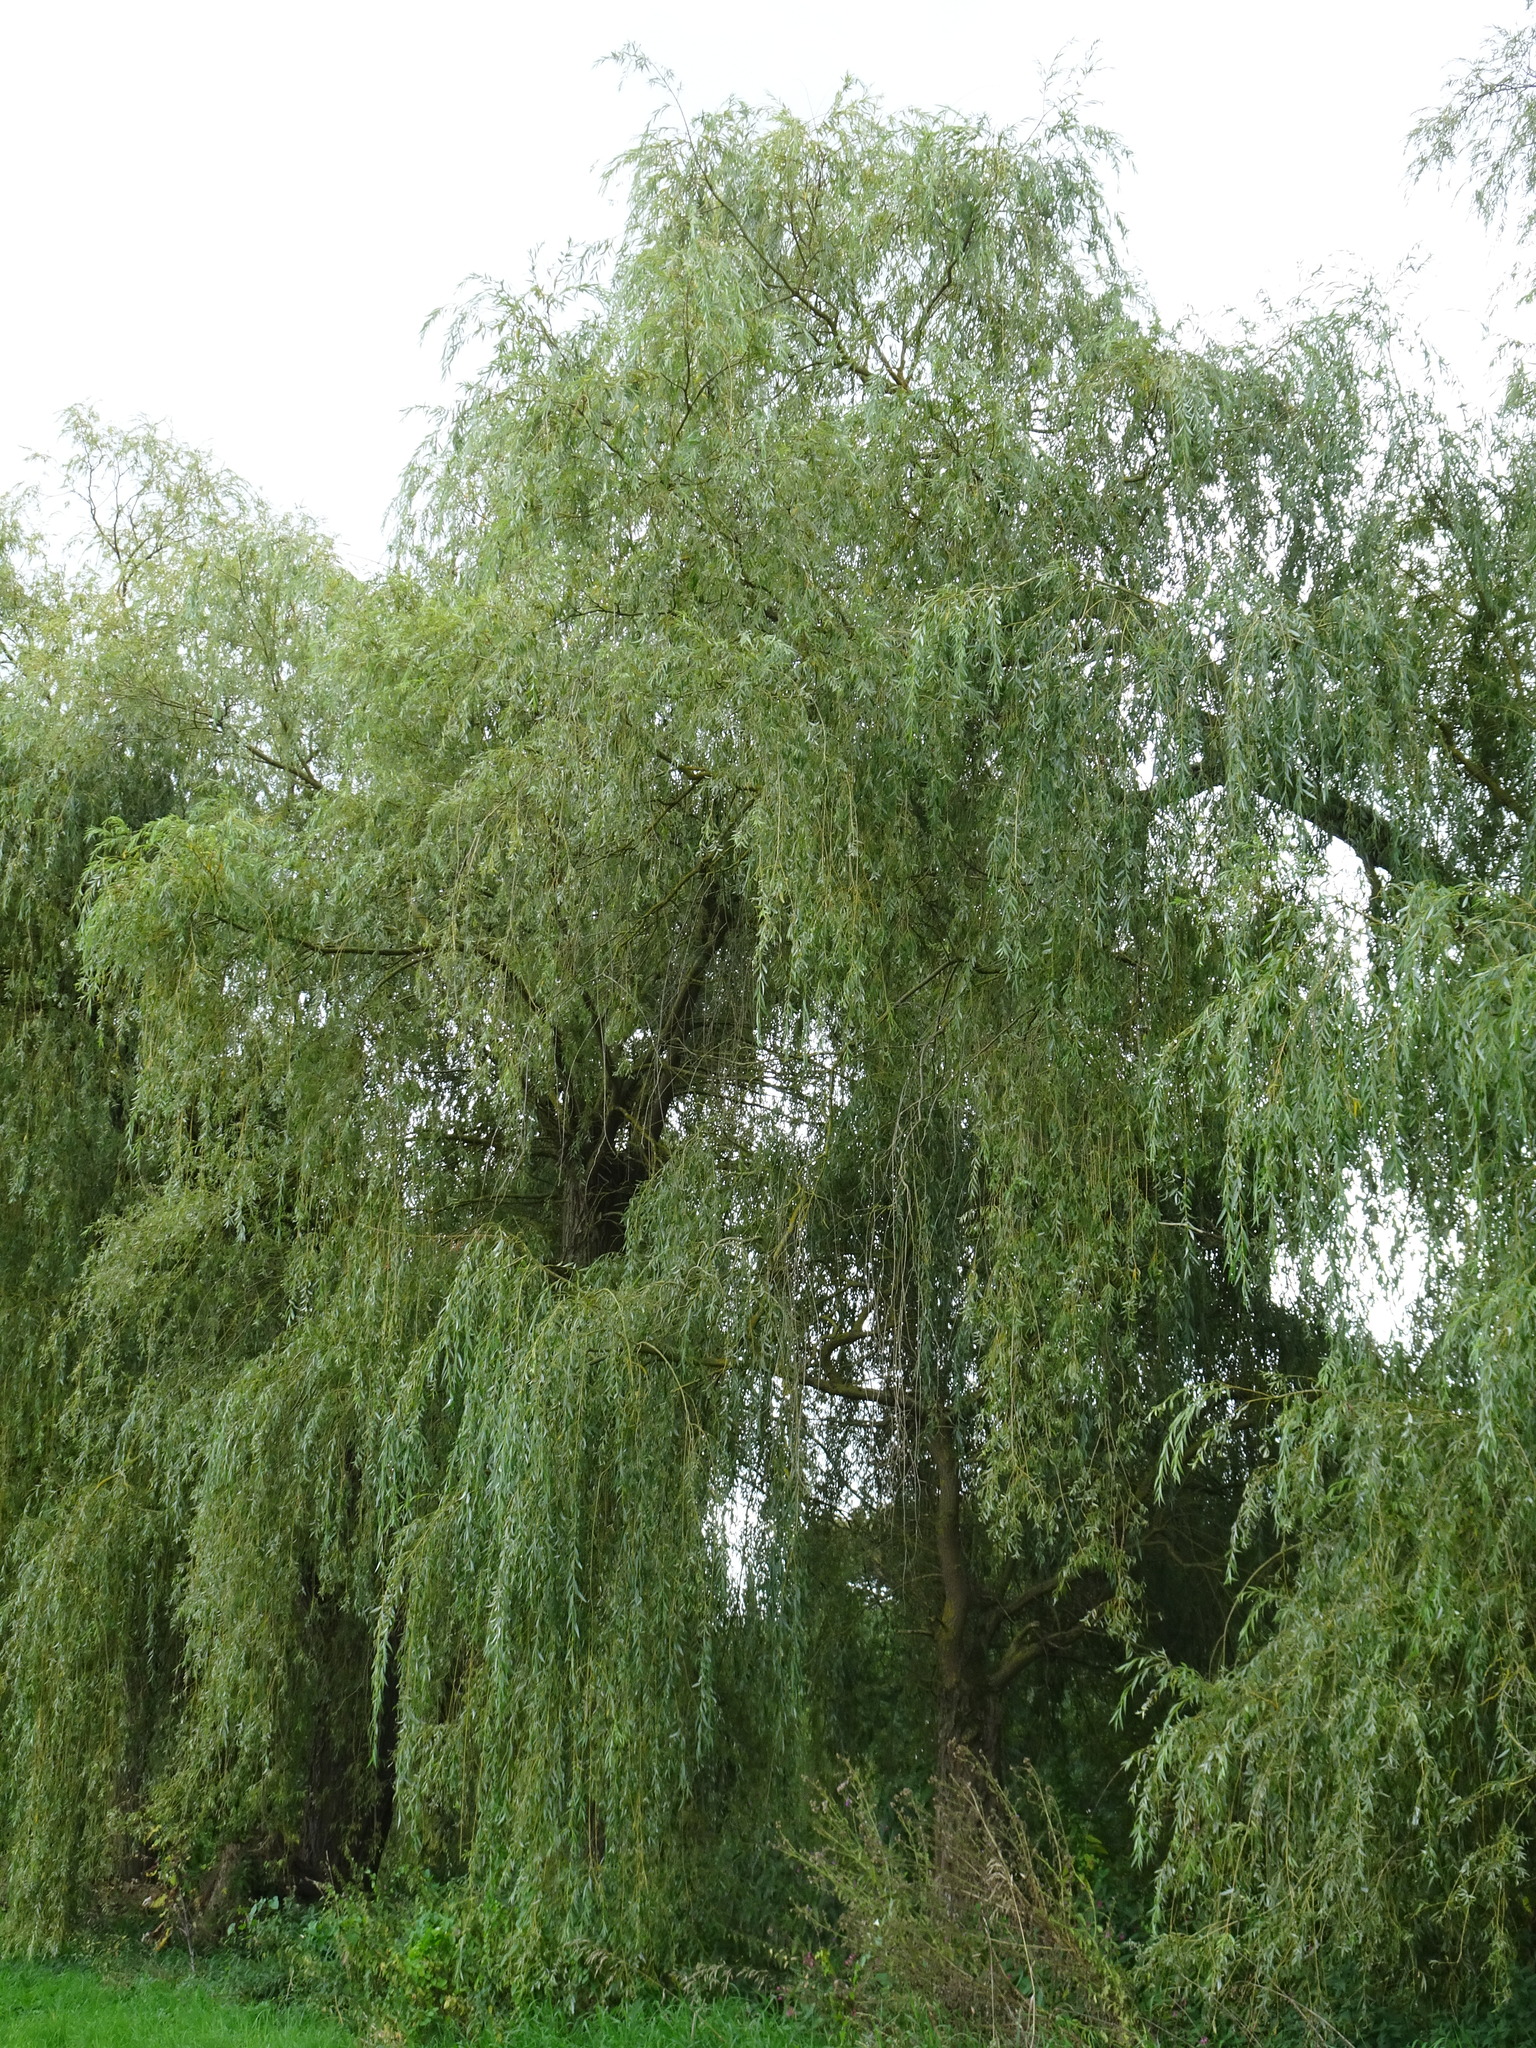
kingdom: Plantae
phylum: Tracheophyta
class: Magnoliopsida
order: Malpighiales
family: Salicaceae
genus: Salix
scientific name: Salix pendulina
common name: Wisconsin weeping willow
